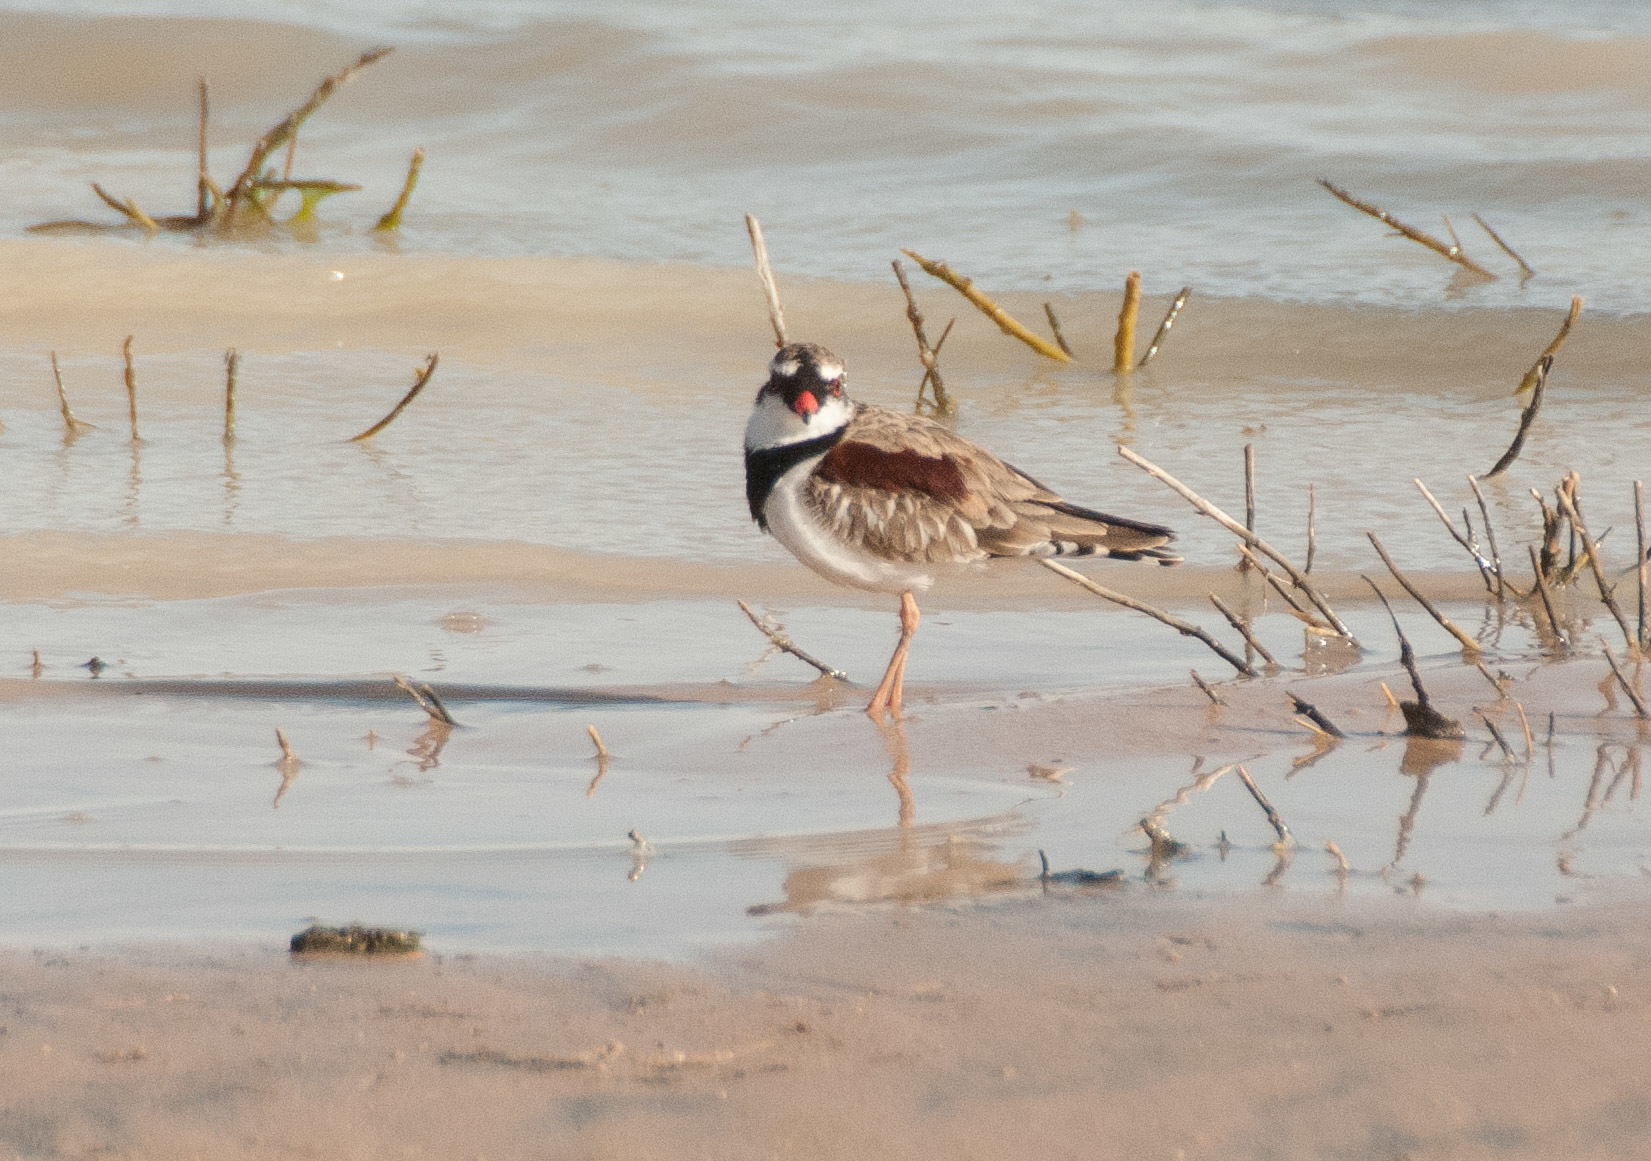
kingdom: Animalia
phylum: Chordata
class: Aves
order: Charadriiformes
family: Charadriidae
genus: Elseyornis
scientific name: Elseyornis melanops
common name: Black-fronted dotterel
